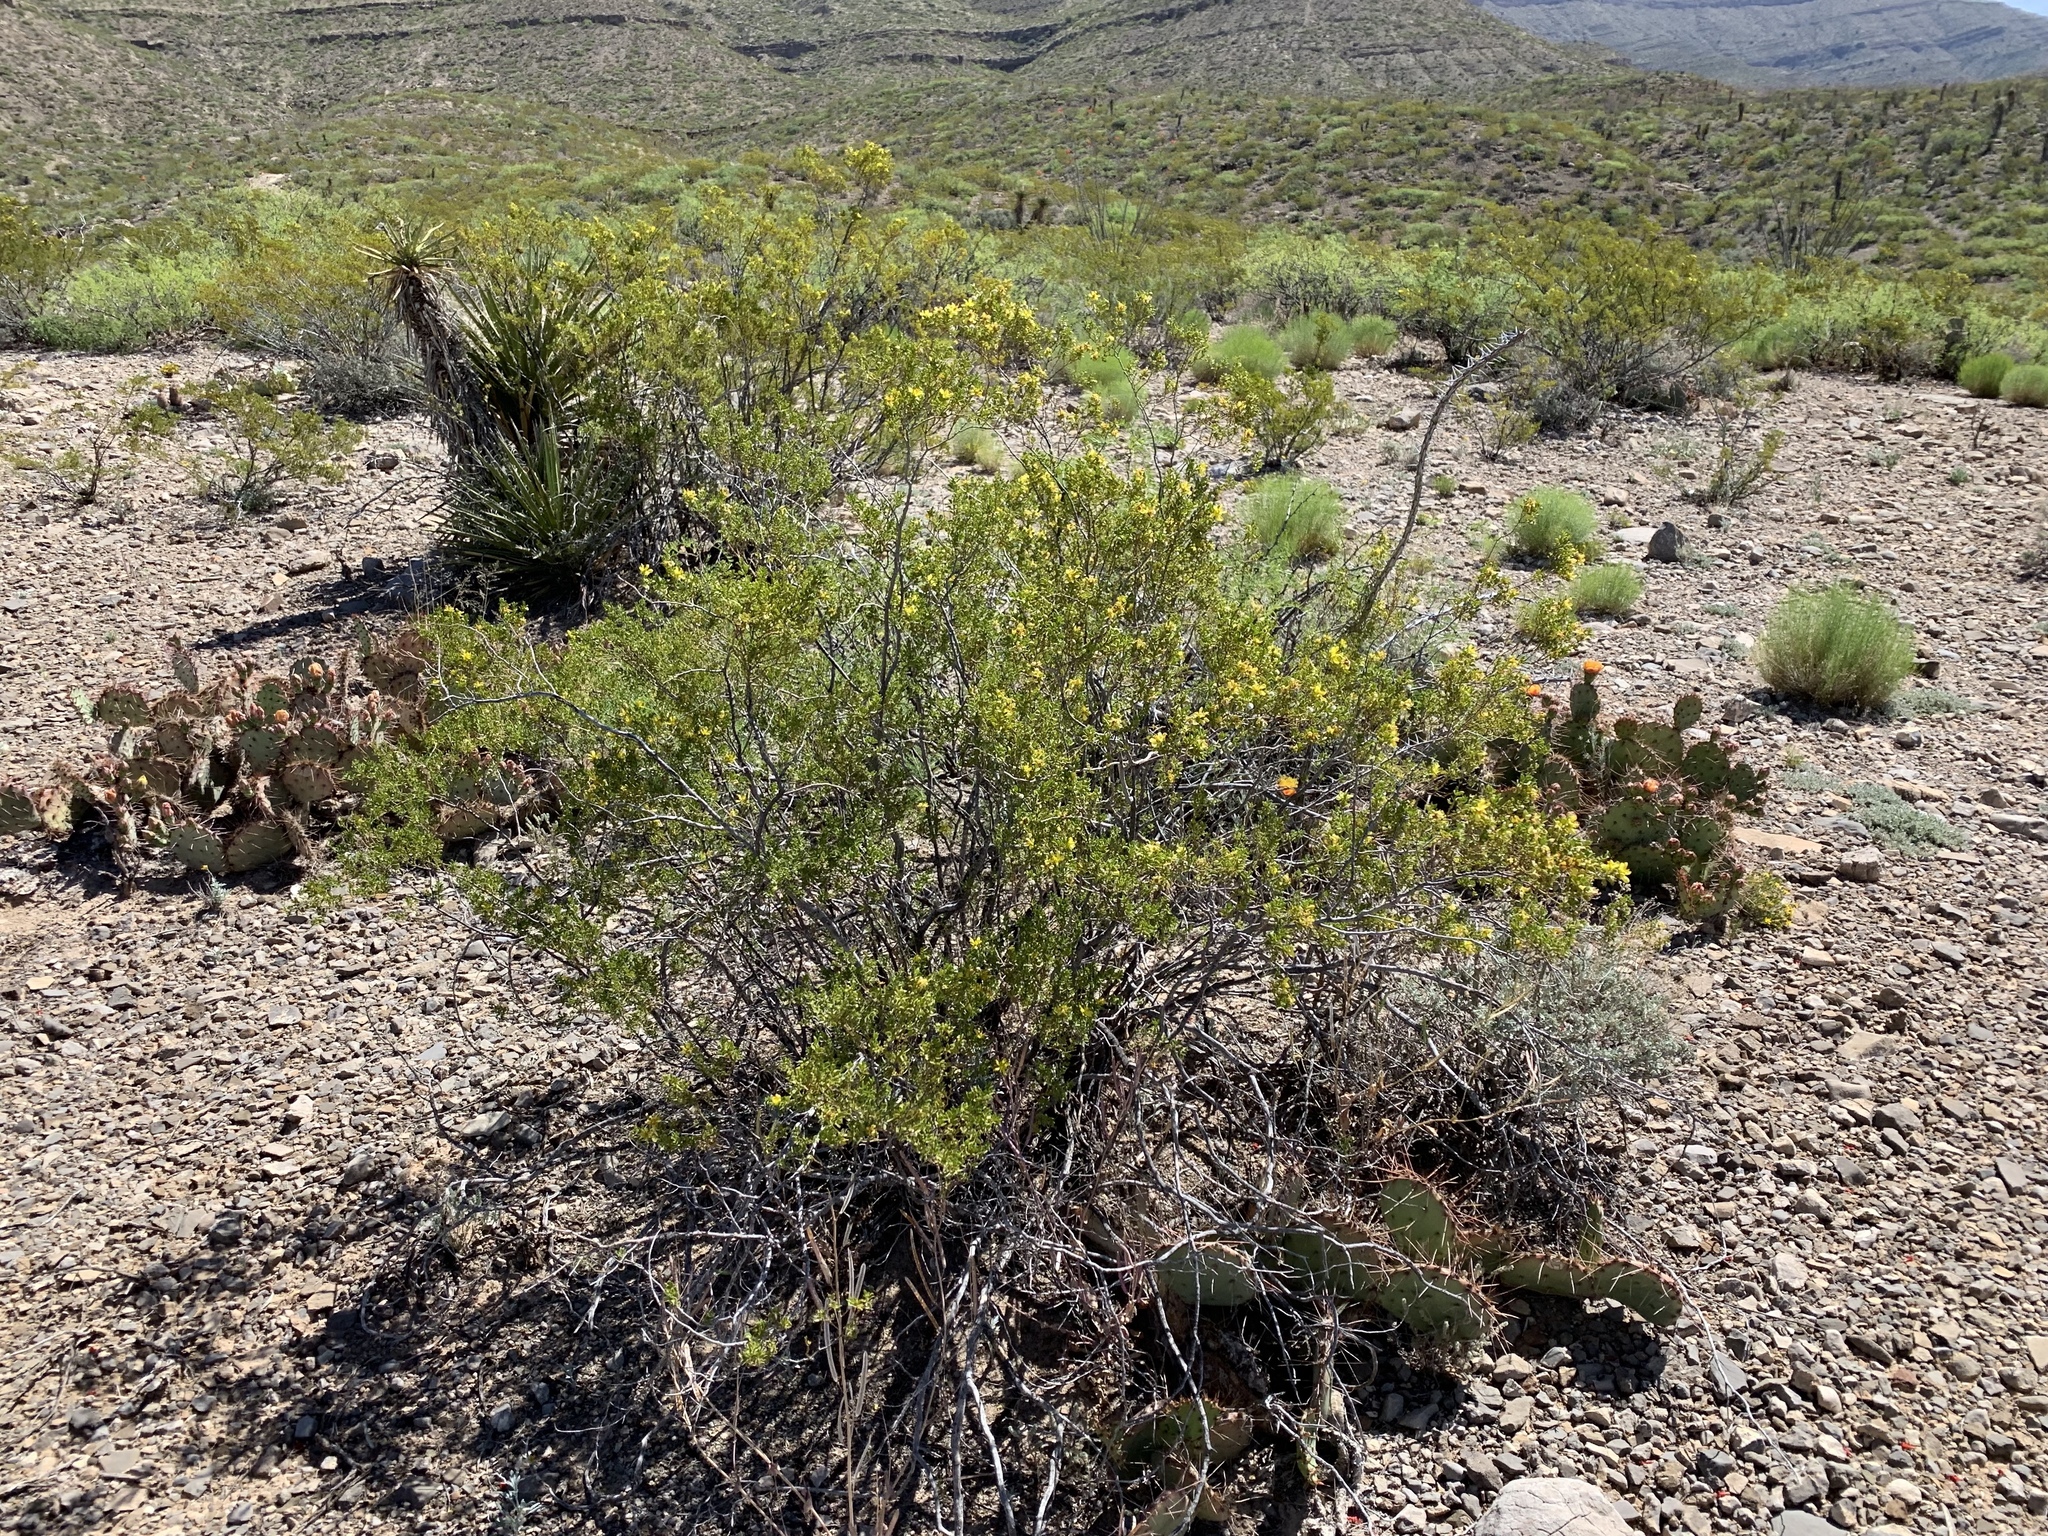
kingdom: Plantae
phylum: Tracheophyta
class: Magnoliopsida
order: Zygophyllales
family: Zygophyllaceae
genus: Larrea
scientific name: Larrea tridentata
